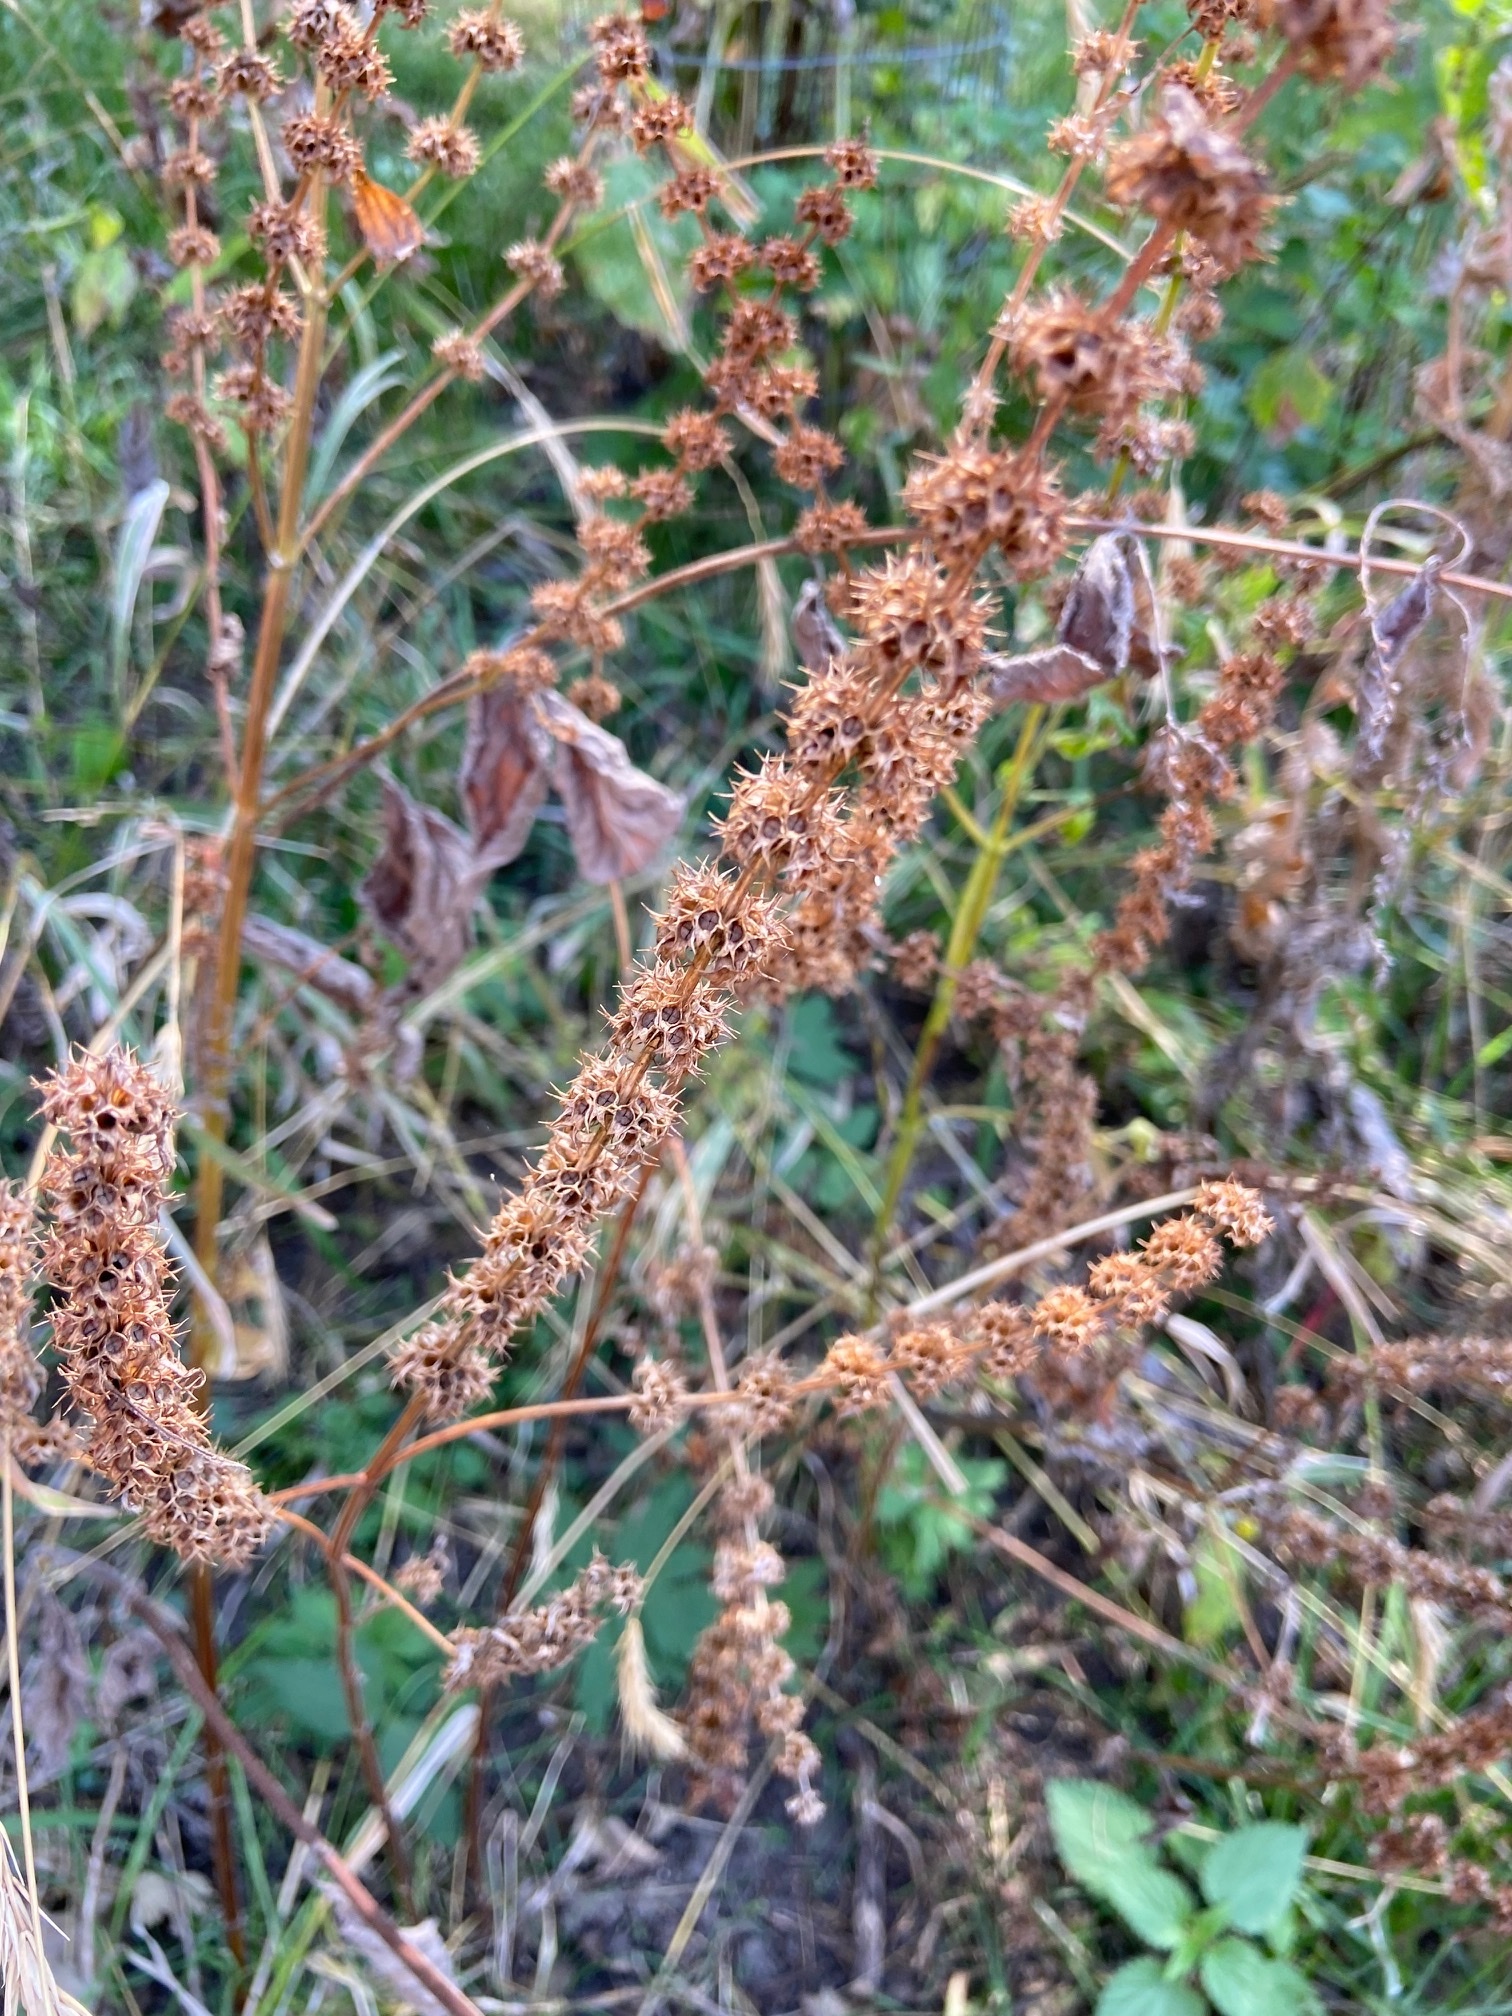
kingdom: Plantae
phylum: Tracheophyta
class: Magnoliopsida
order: Lamiales
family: Lamiaceae
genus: Leonurus
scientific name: Leonurus cardiaca
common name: Motherwort
